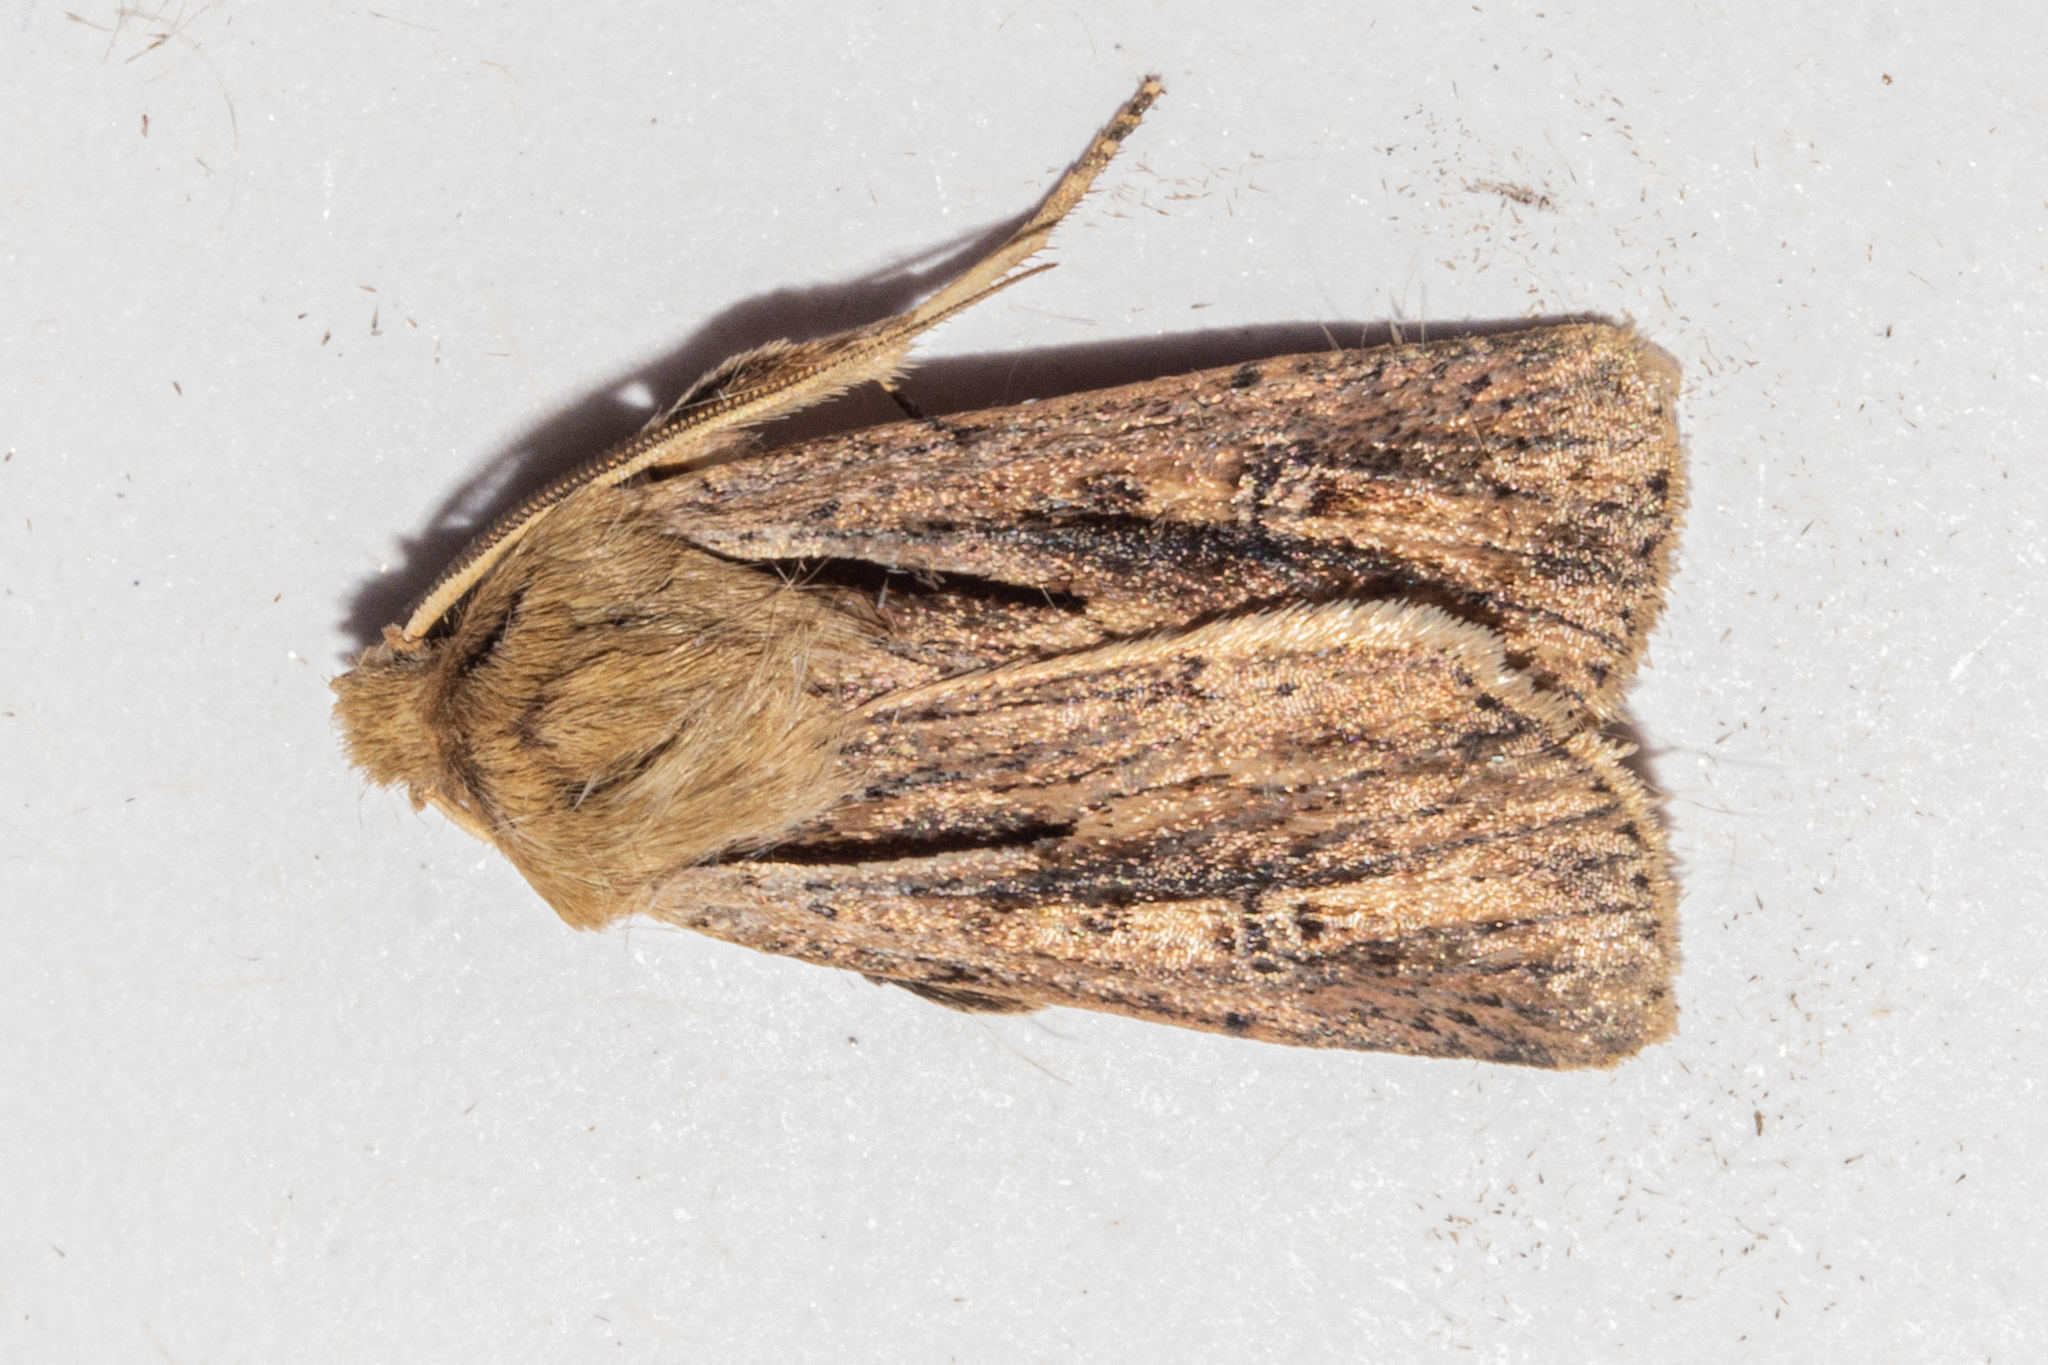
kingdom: Animalia
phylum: Arthropoda
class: Insecta
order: Lepidoptera
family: Noctuidae
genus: Ichneutica
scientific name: Ichneutica propria
